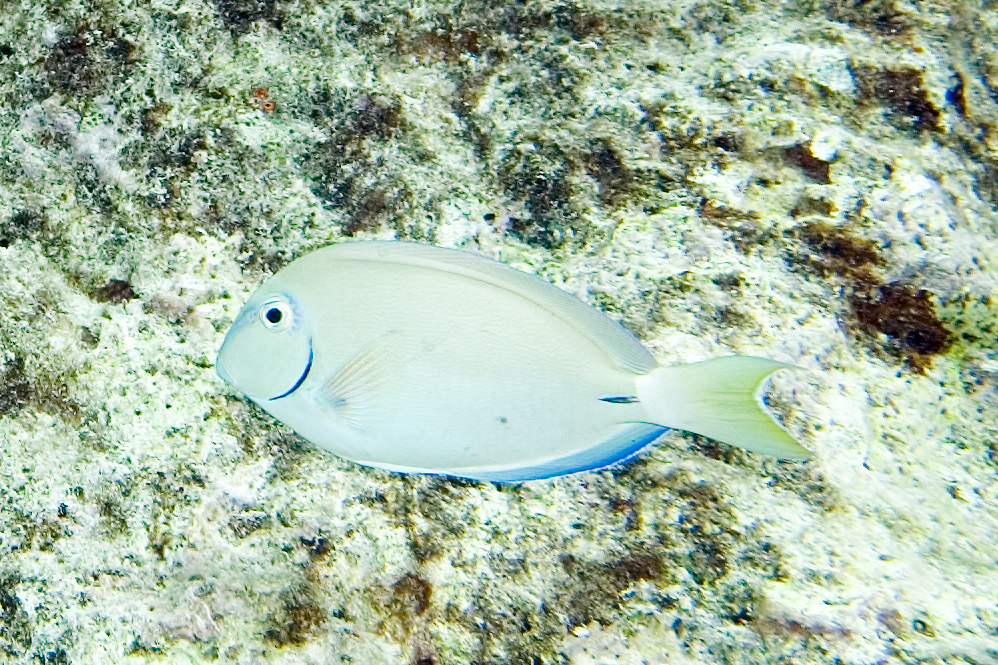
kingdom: Animalia
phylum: Chordata
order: Perciformes
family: Acanthuridae
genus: Acanthurus
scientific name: Acanthurus bahianus
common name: Ocean surgeon
